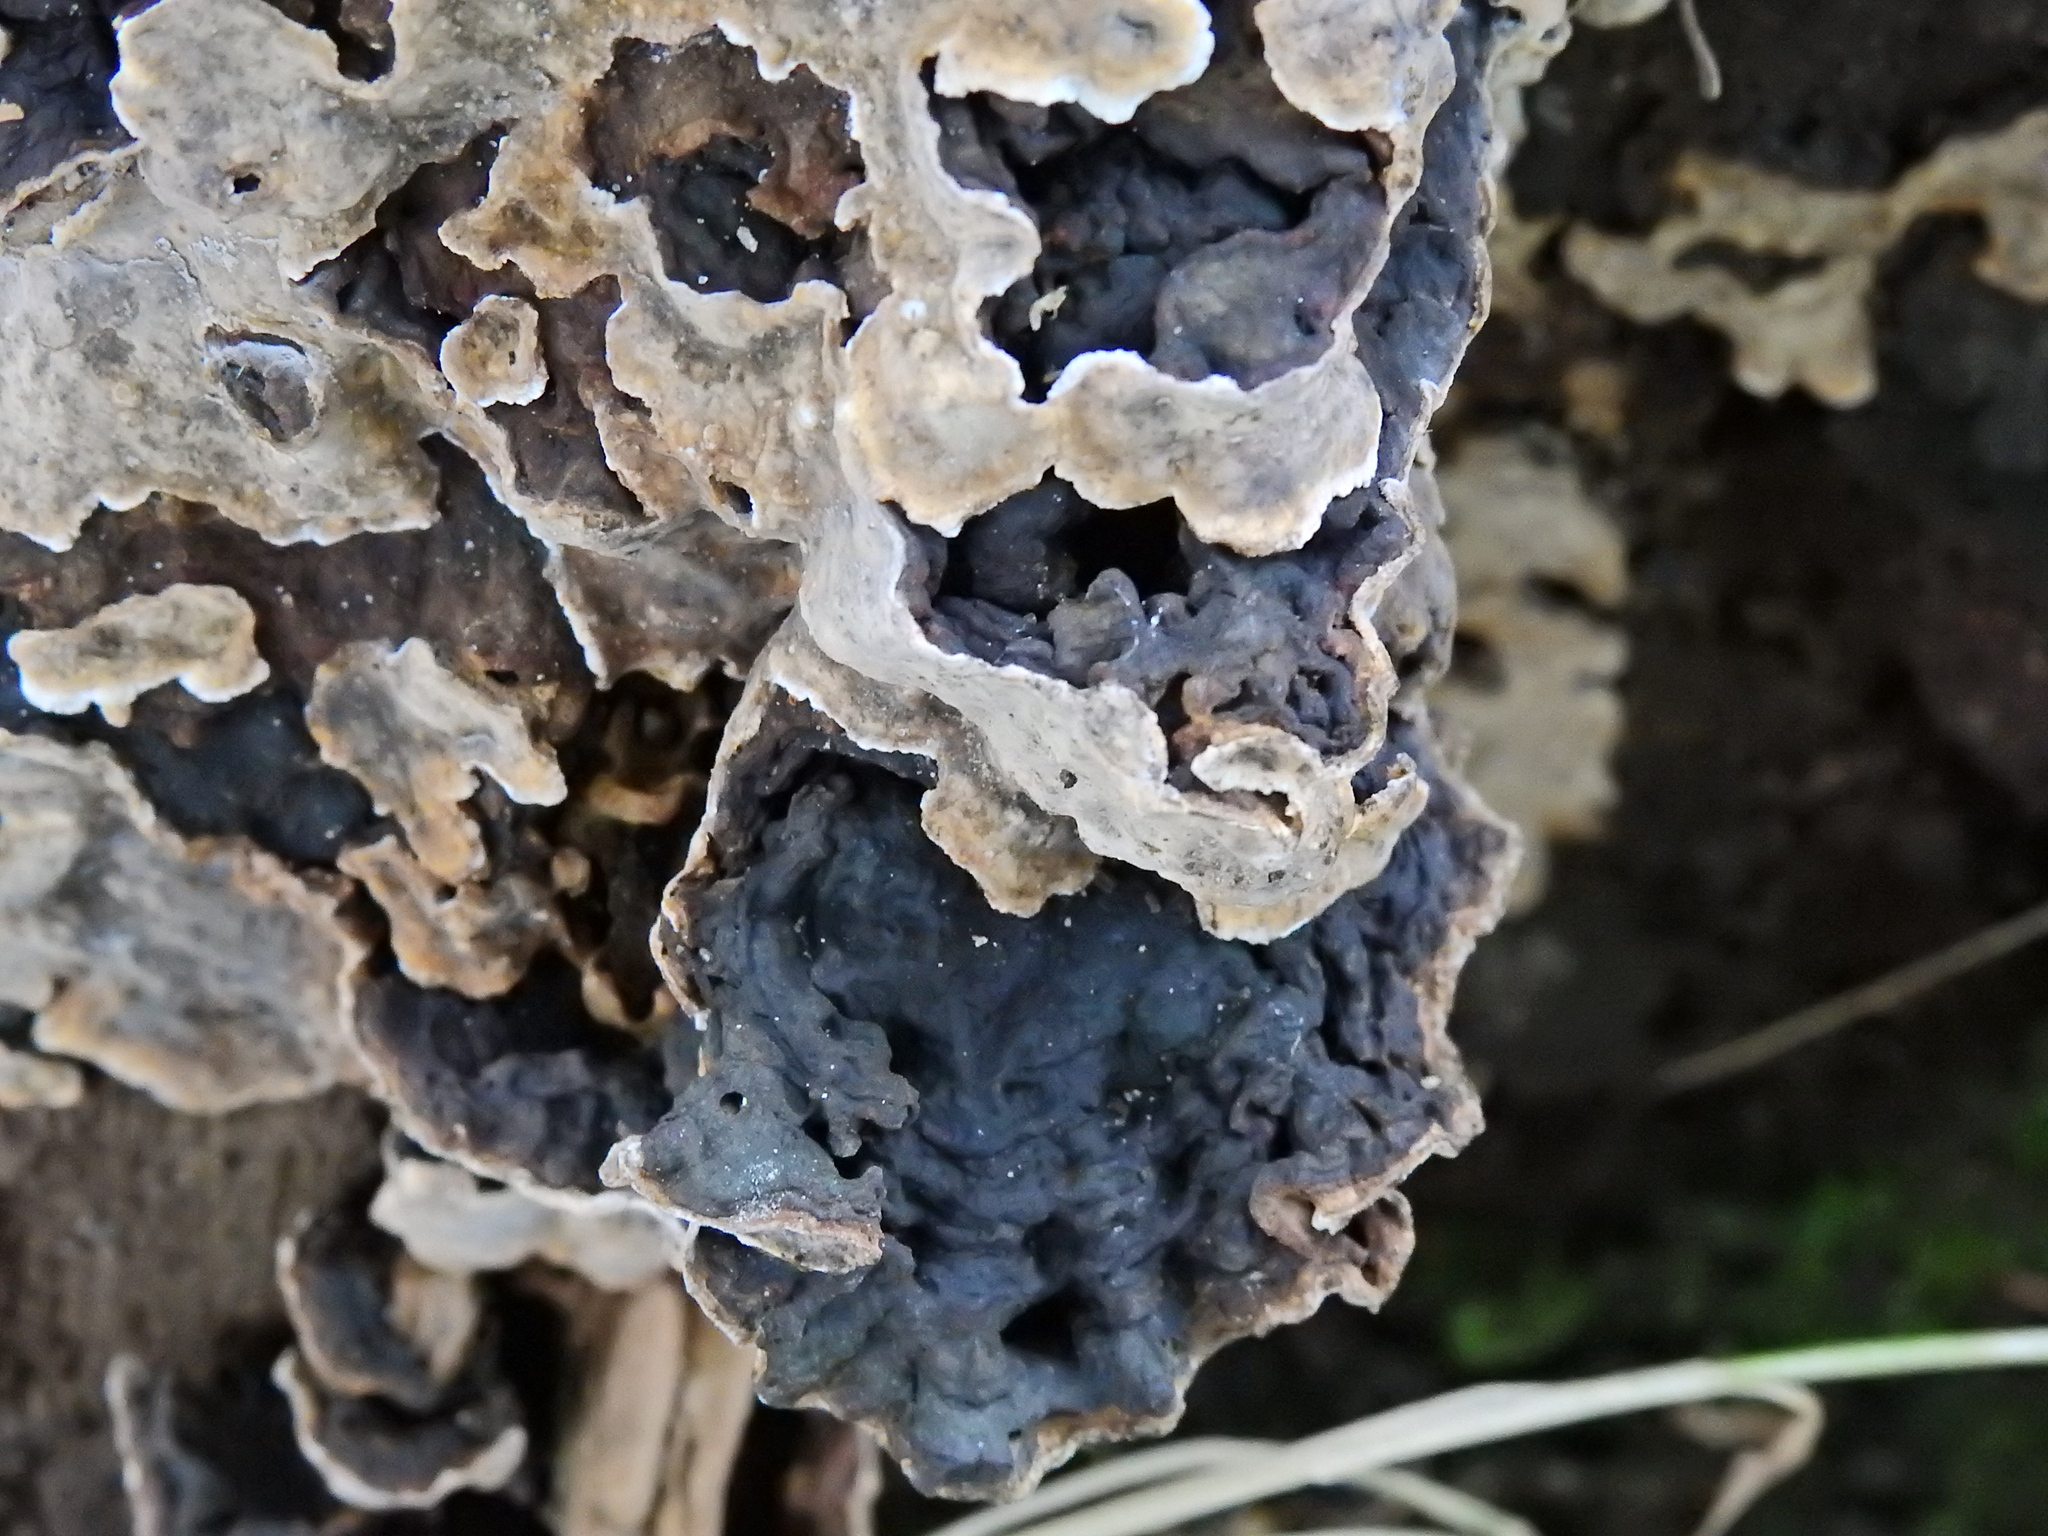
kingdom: Fungi
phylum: Basidiomycota
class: Agaricomycetes
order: Polyporales
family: Phanerochaetaceae
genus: Bjerkandera
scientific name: Bjerkandera adusta
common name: Smoky bracket
